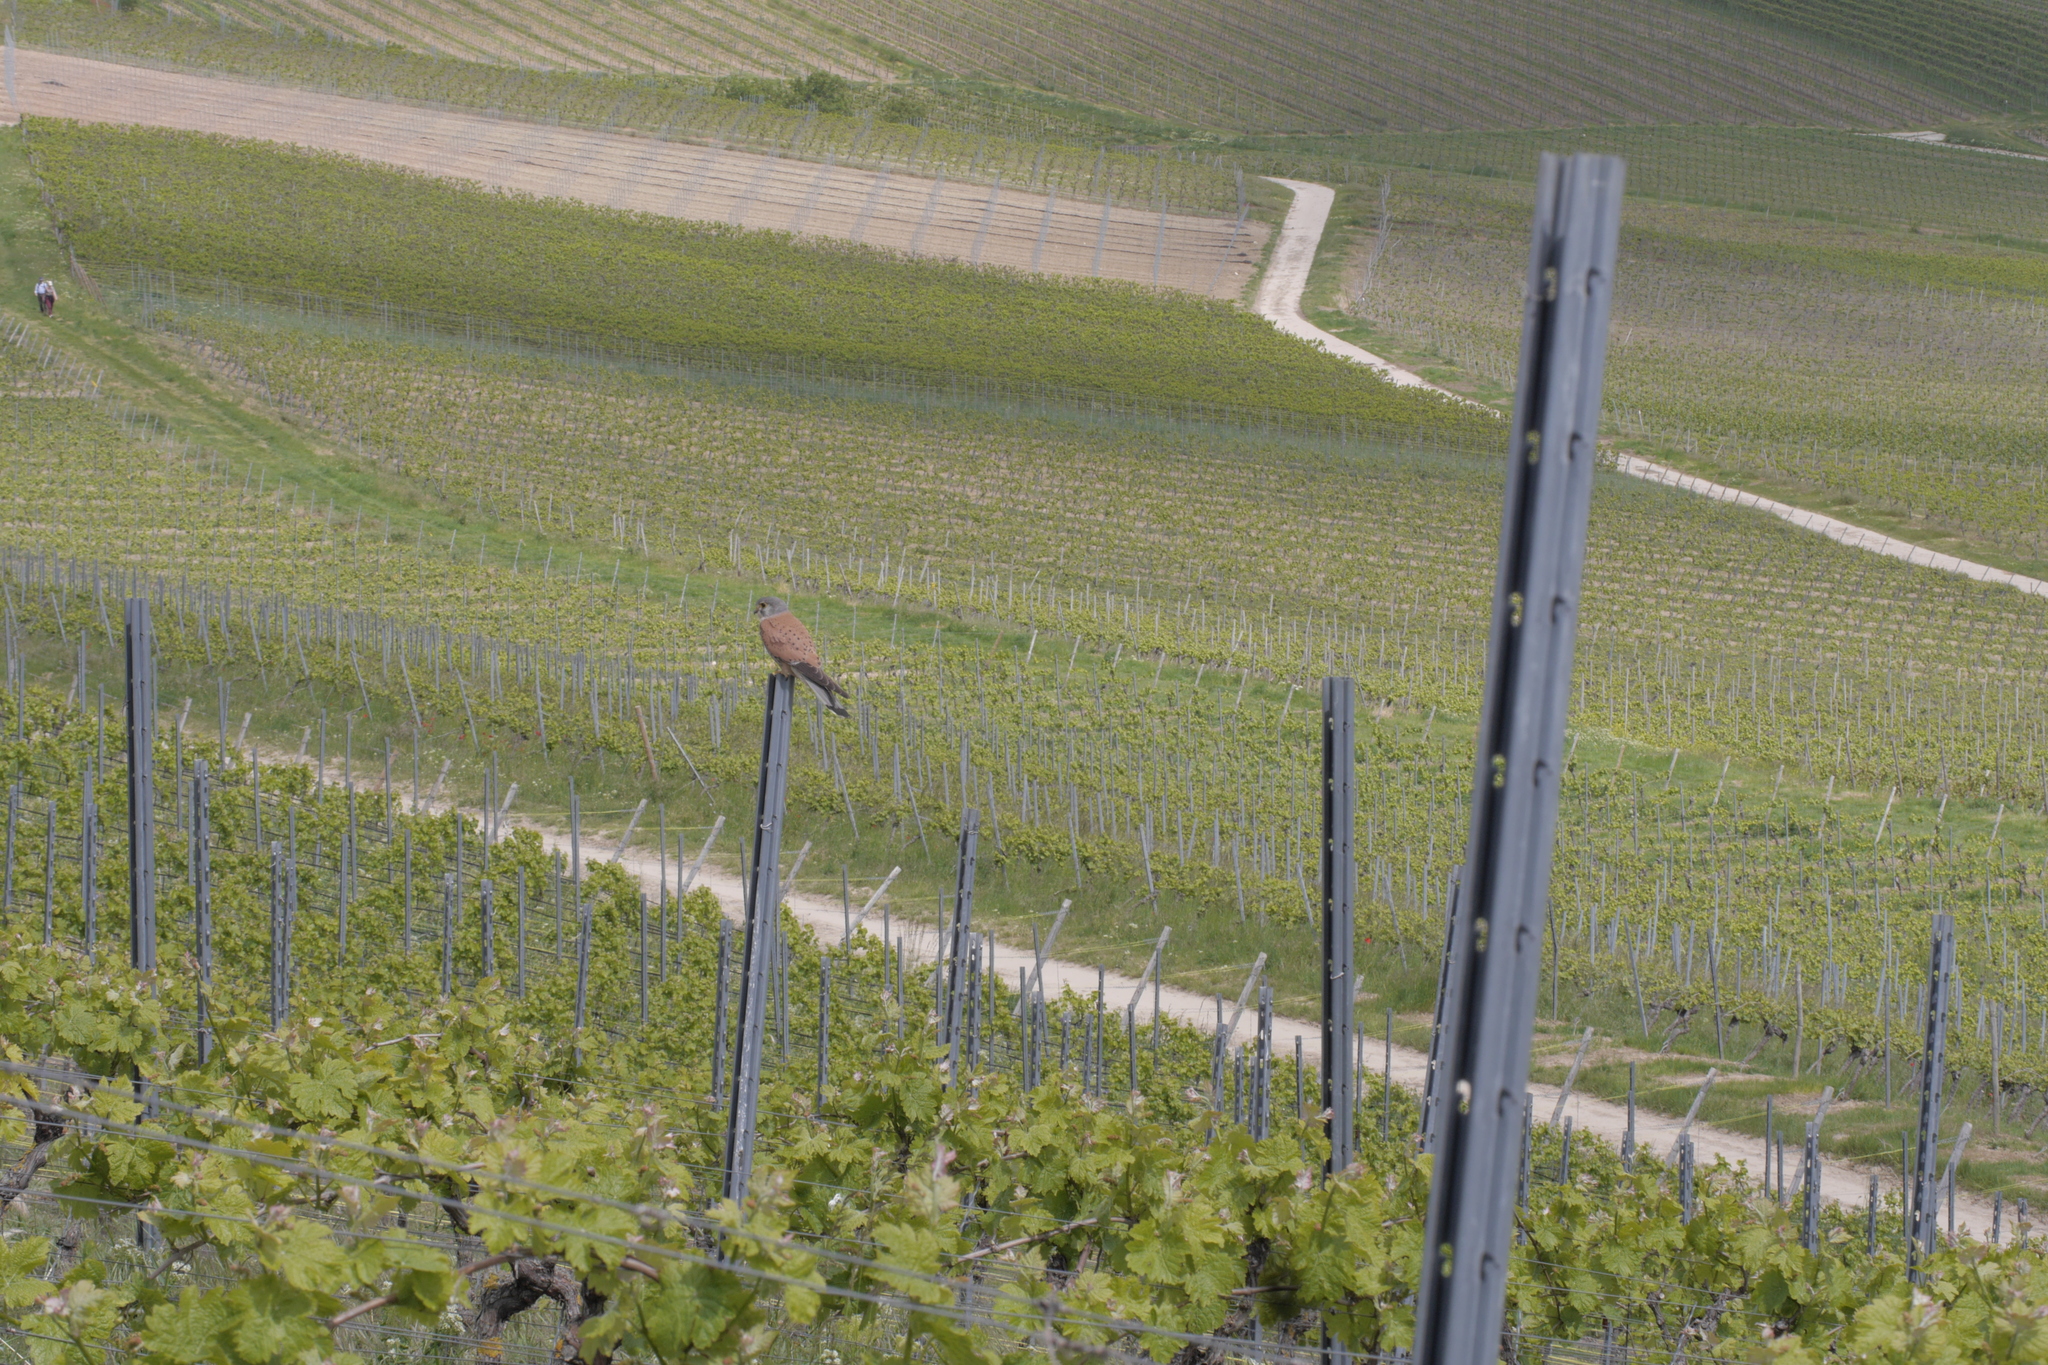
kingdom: Animalia
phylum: Chordata
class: Aves
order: Falconiformes
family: Falconidae
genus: Falco
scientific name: Falco tinnunculus
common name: Common kestrel
